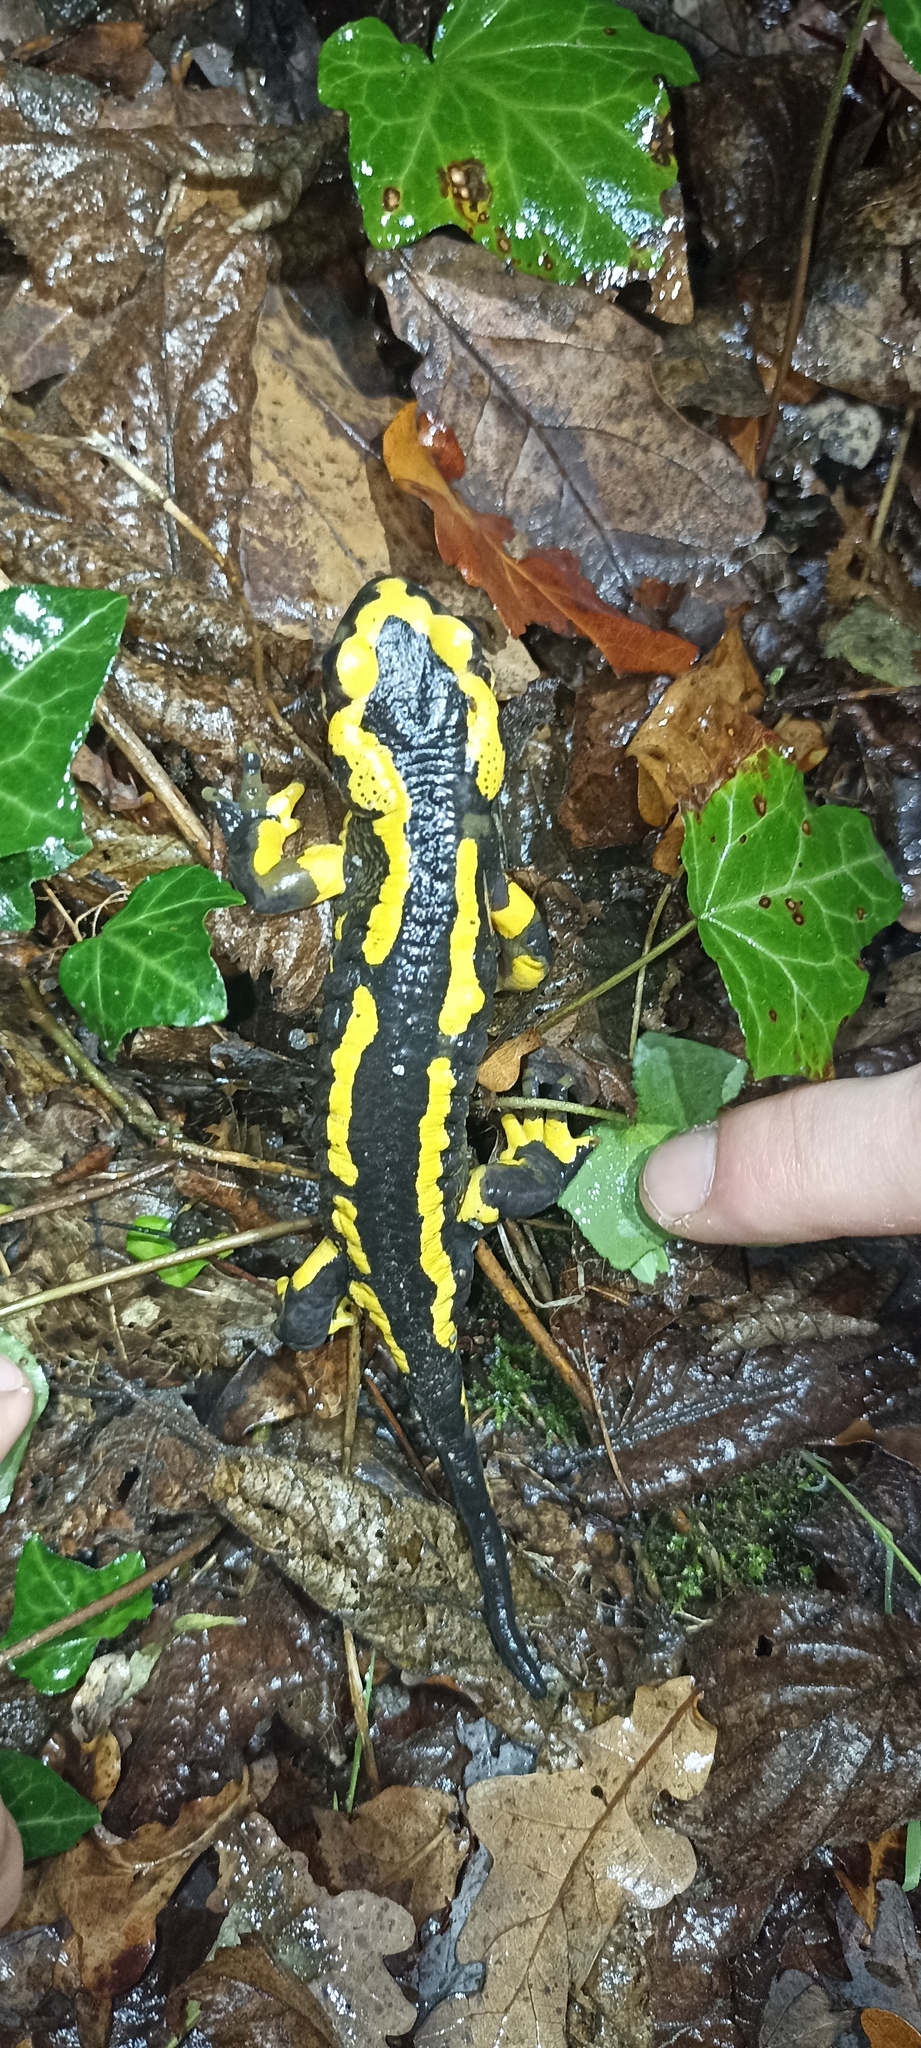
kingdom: Animalia
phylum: Chordata
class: Amphibia
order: Caudata
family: Salamandridae
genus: Salamandra
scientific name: Salamandra salamandra
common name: Fire salamander
